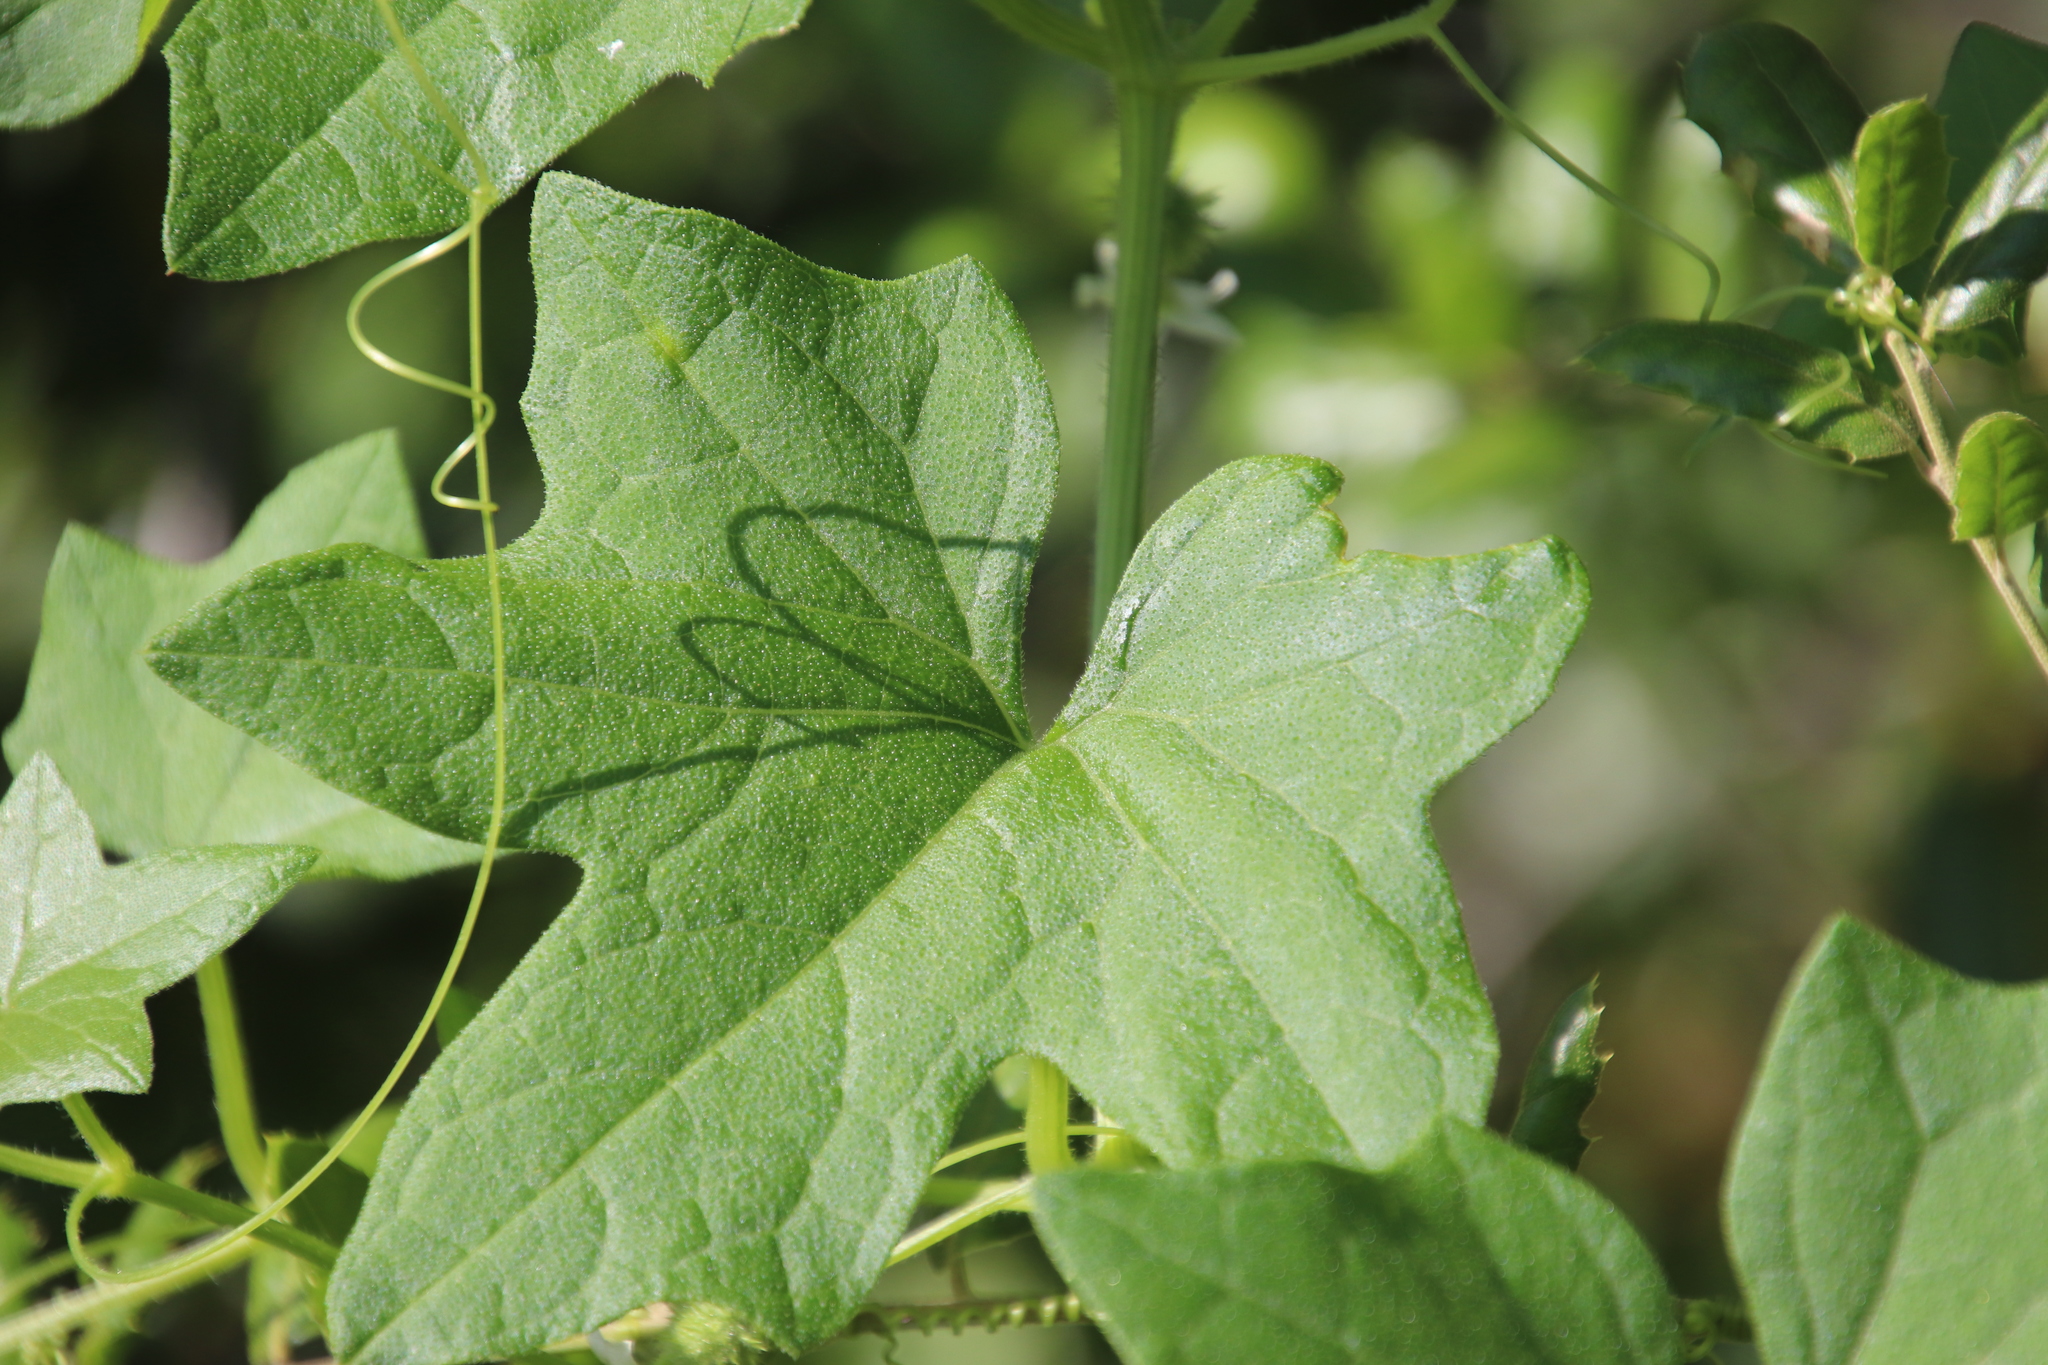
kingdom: Plantae
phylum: Tracheophyta
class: Magnoliopsida
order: Cucurbitales
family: Cucurbitaceae
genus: Marah
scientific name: Marah macrocarpa
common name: Cucamonga manroot
